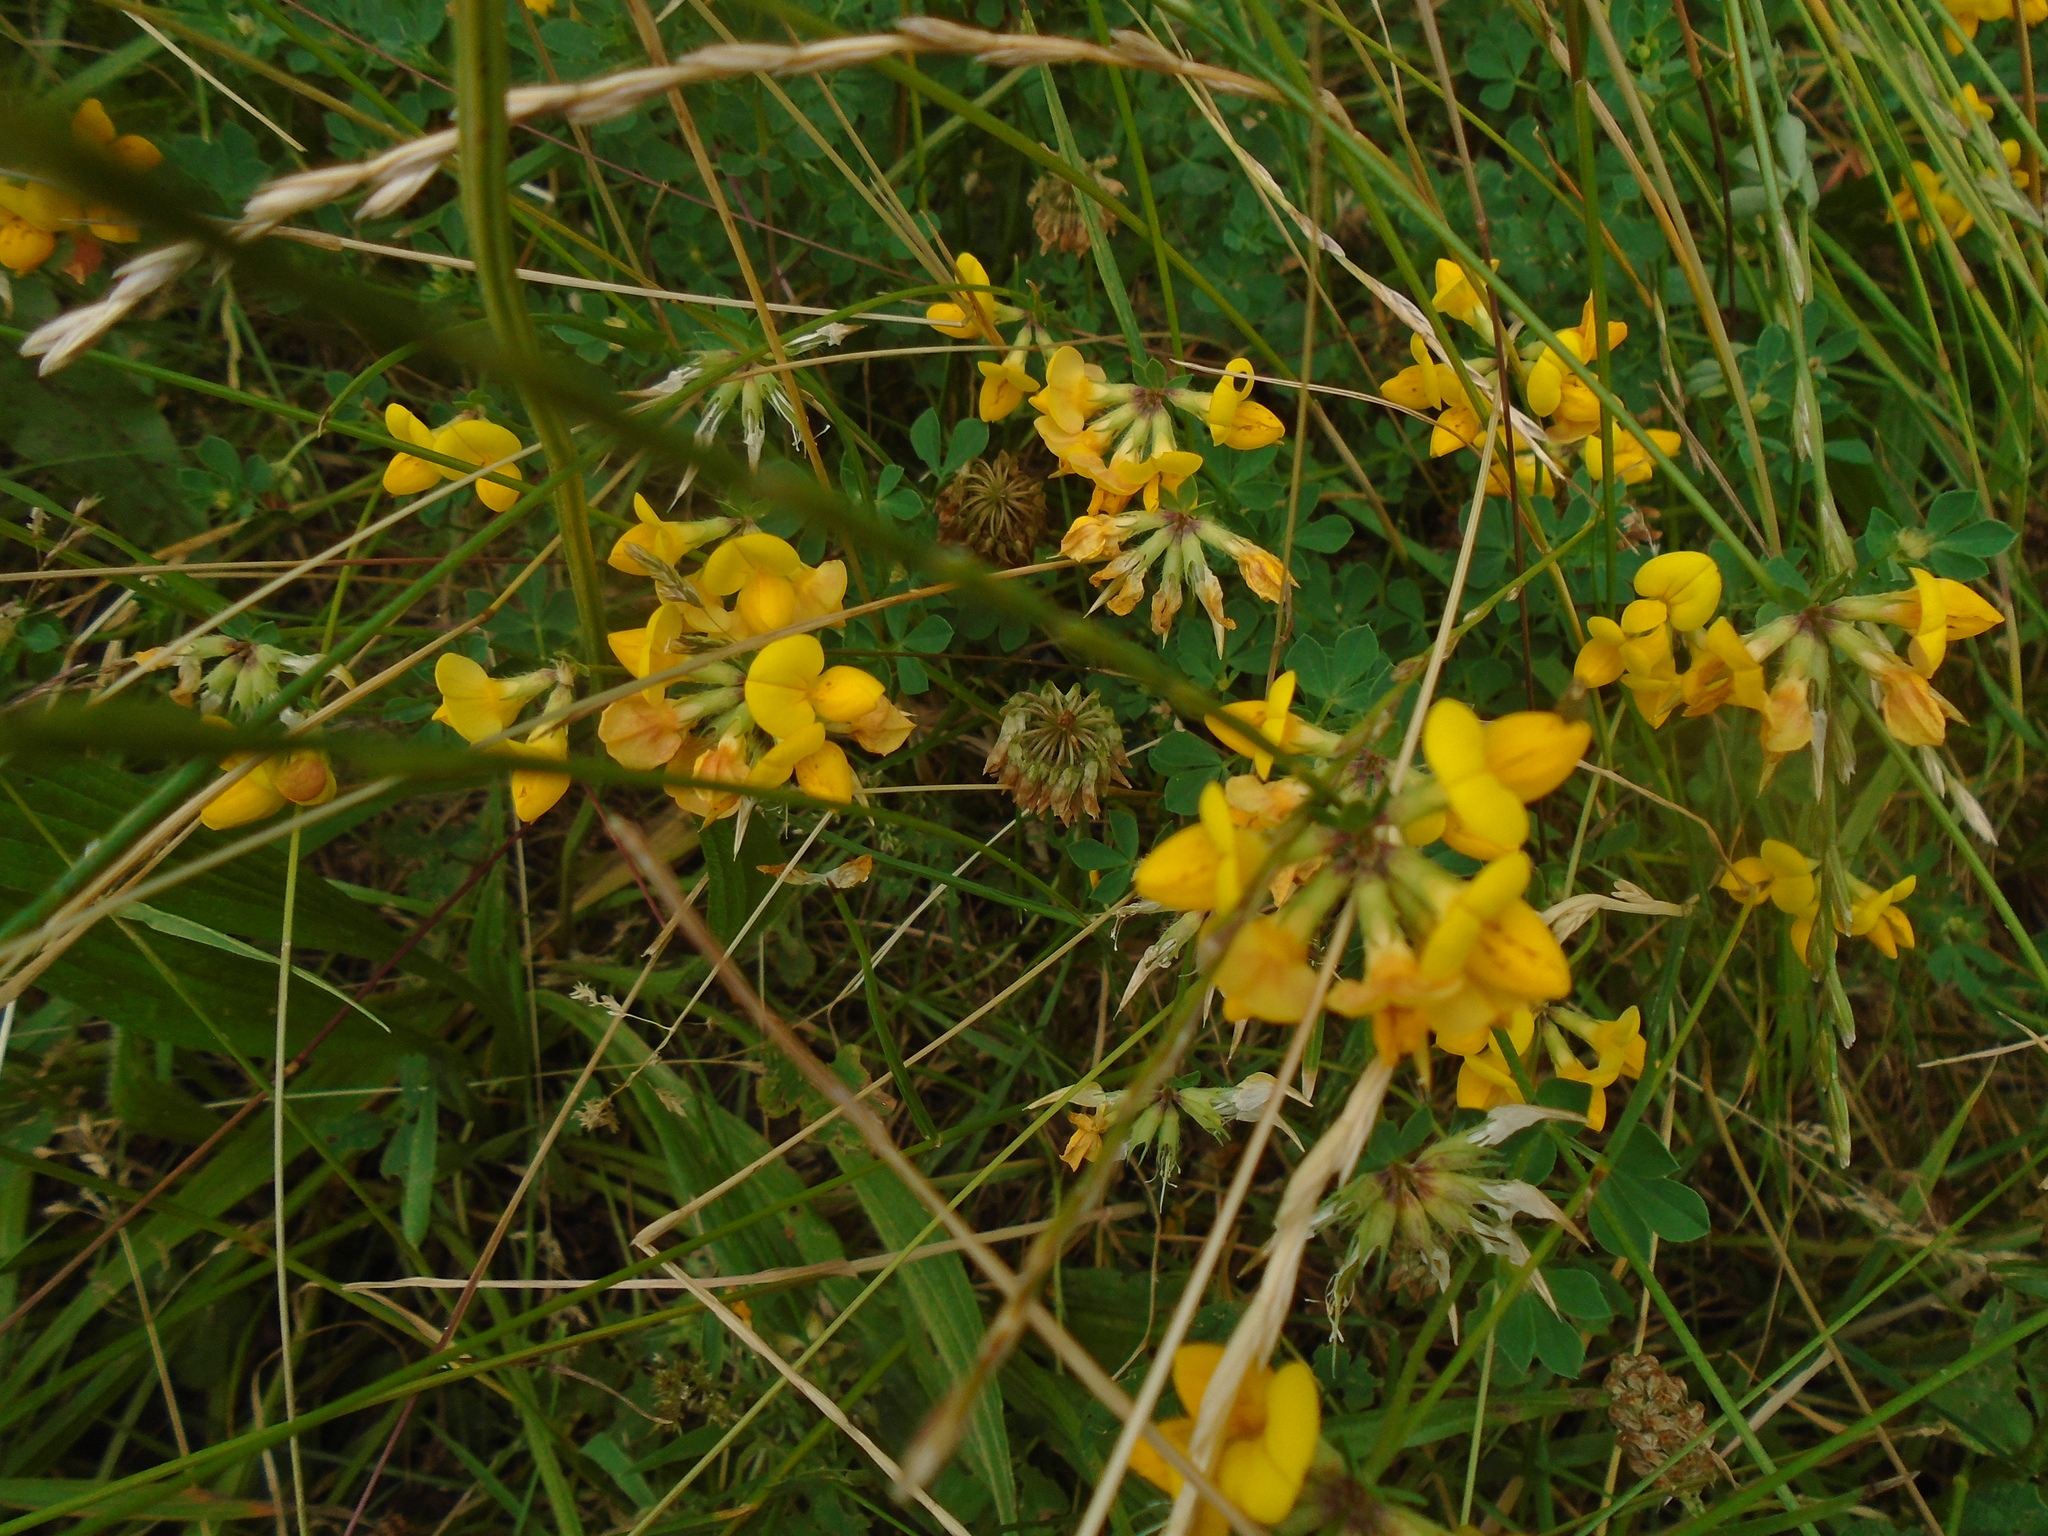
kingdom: Plantae
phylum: Tracheophyta
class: Magnoliopsida
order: Fabales
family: Fabaceae
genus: Lotus
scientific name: Lotus corniculatus
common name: Common bird's-foot-trefoil
